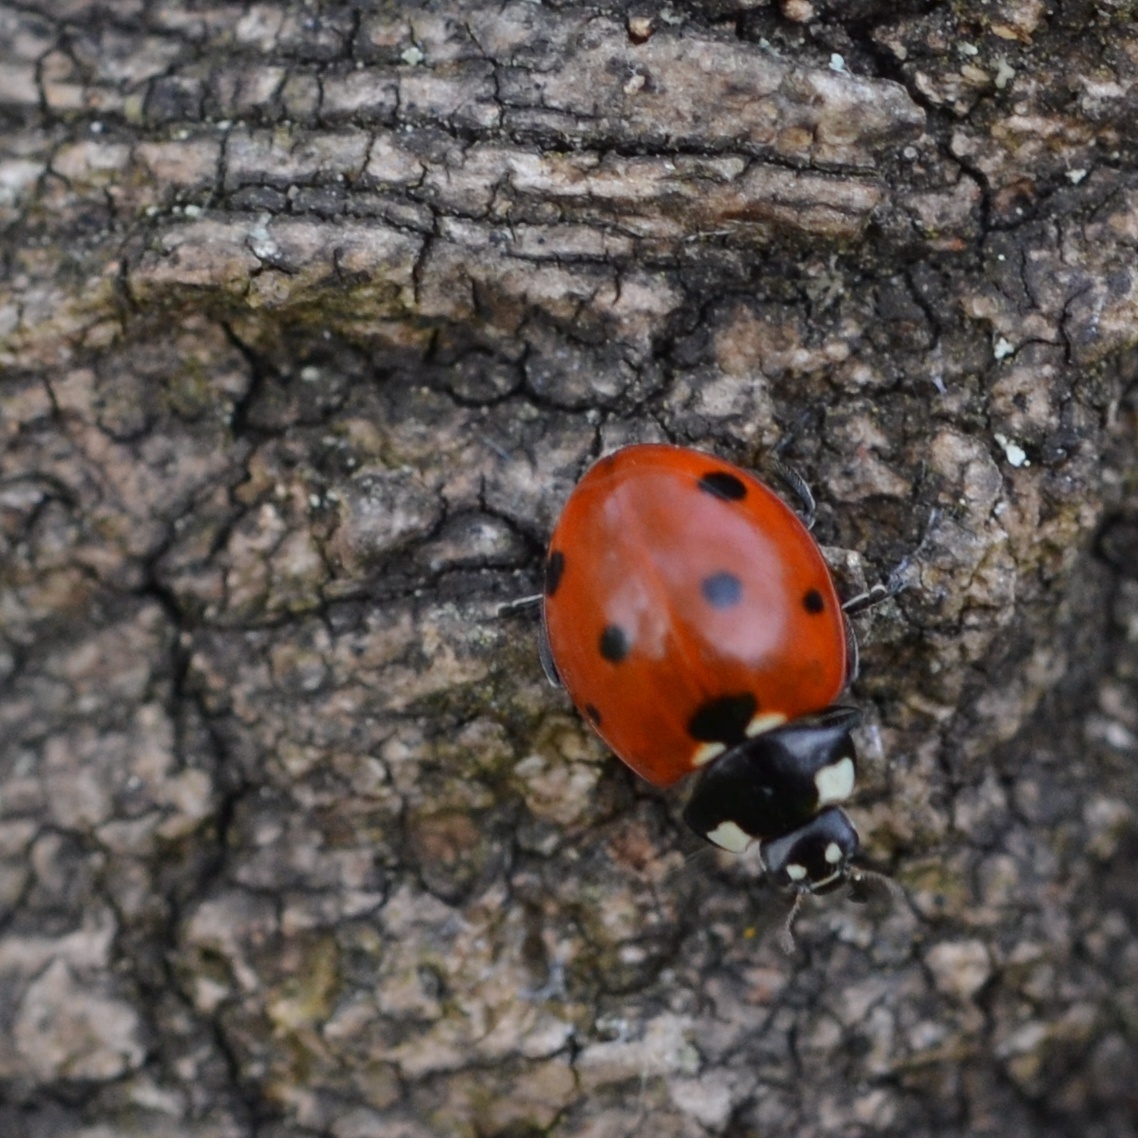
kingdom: Animalia
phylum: Arthropoda
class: Insecta
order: Coleoptera
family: Coccinellidae
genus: Coccinella
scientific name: Coccinella septempunctata
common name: Sevenspotted lady beetle
